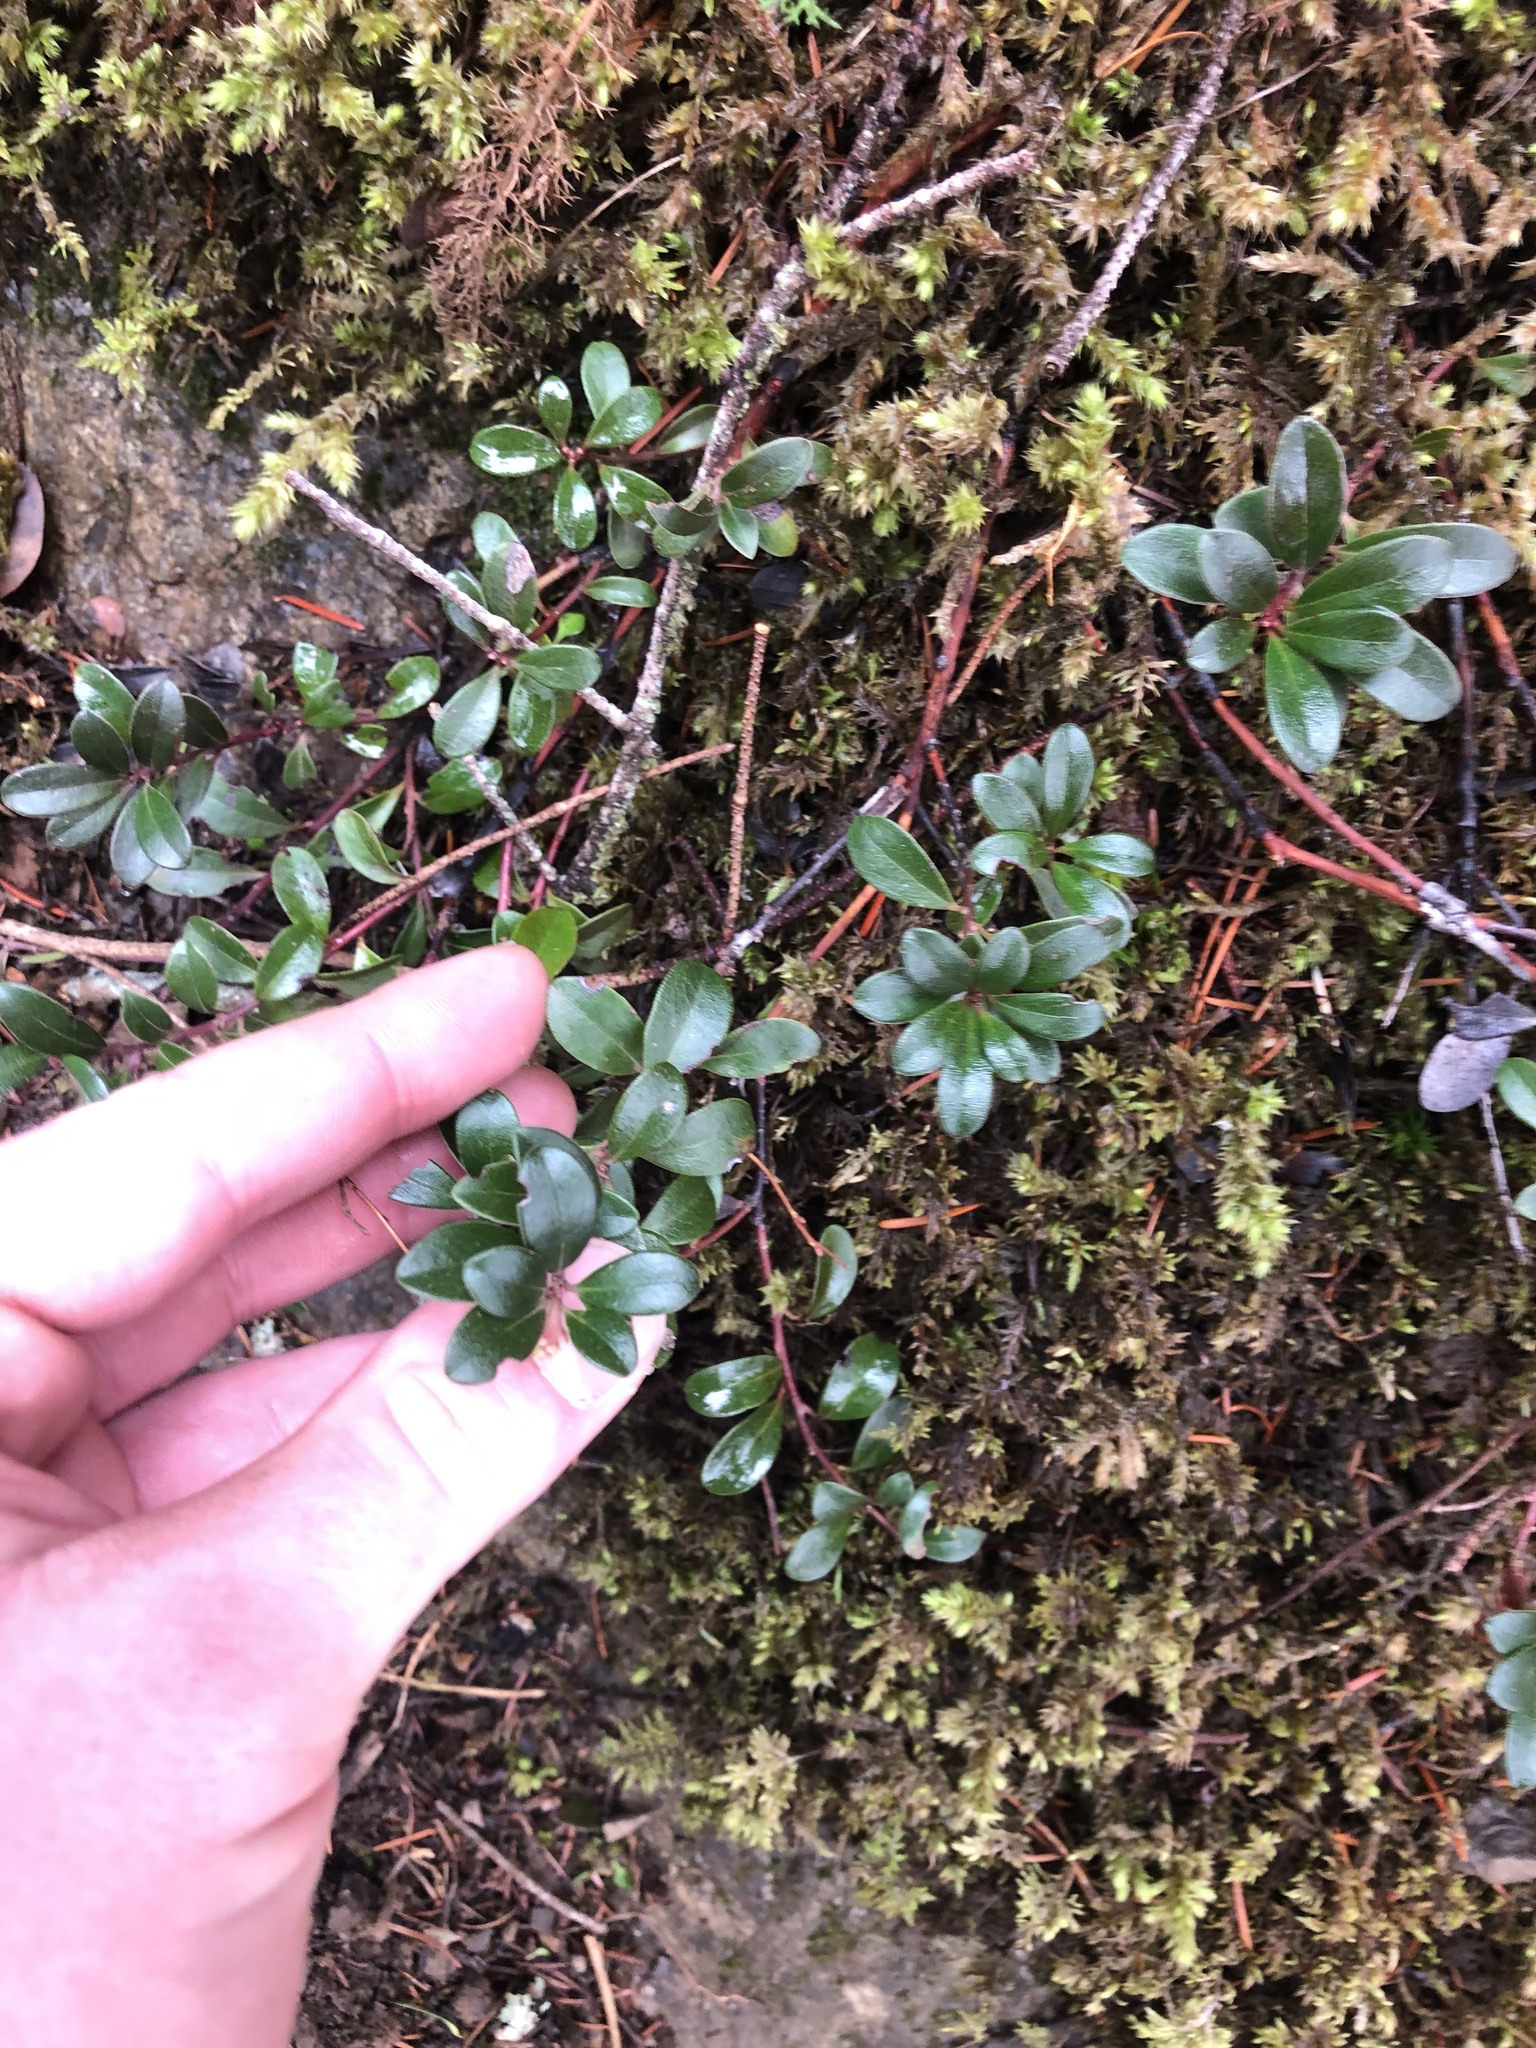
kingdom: Plantae
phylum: Tracheophyta
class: Magnoliopsida
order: Ericales
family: Ericaceae
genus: Arctostaphylos
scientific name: Arctostaphylos uva-ursi
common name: Bearberry
